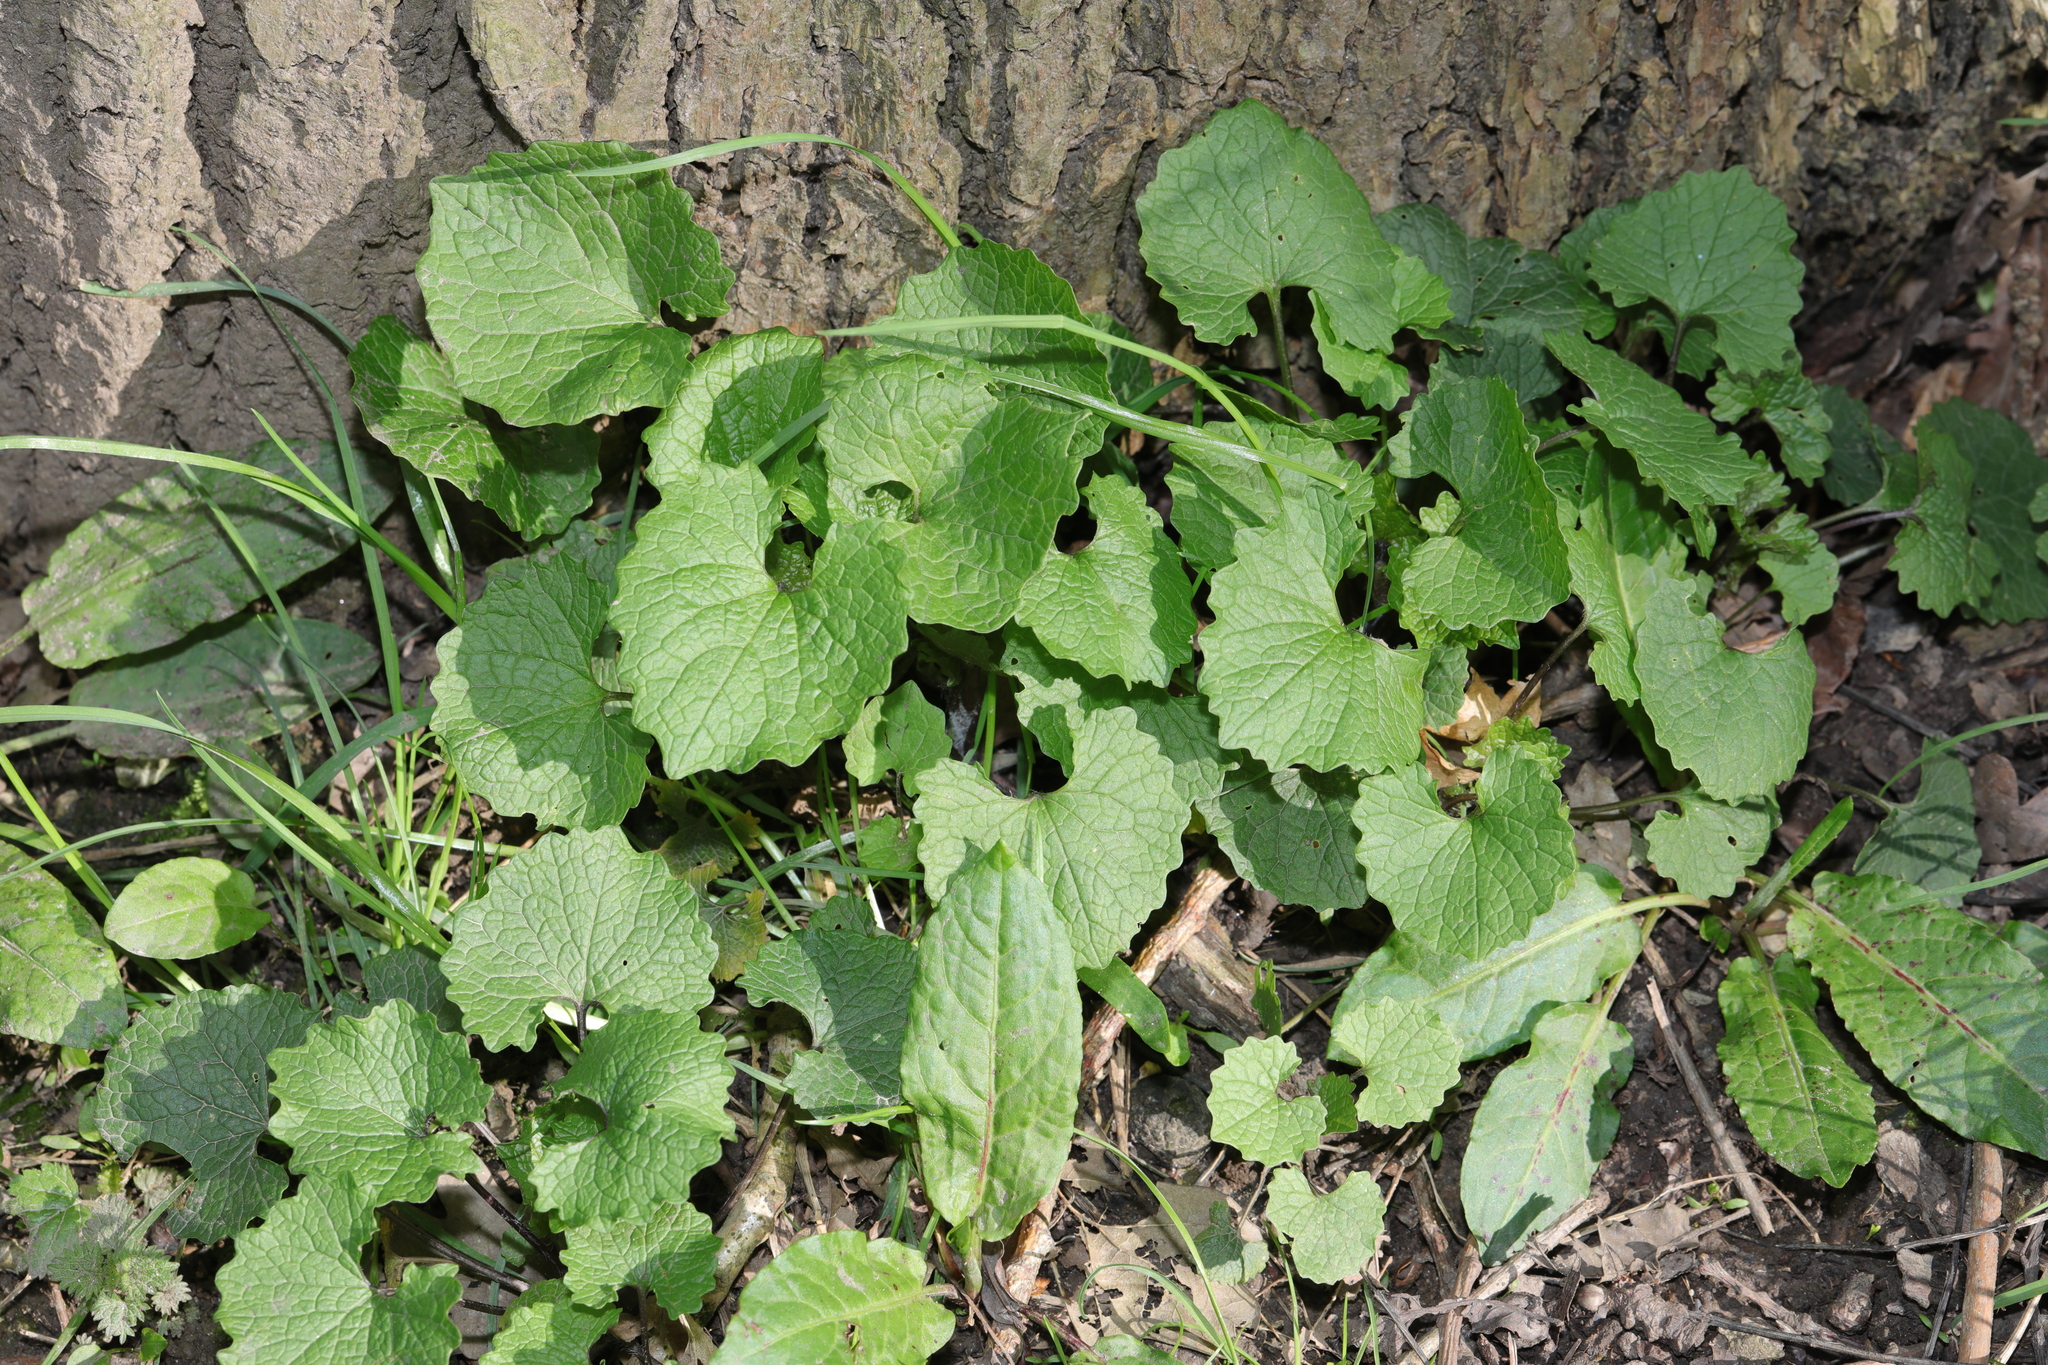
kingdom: Plantae
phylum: Tracheophyta
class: Magnoliopsida
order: Brassicales
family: Brassicaceae
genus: Alliaria
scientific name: Alliaria petiolata
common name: Garlic mustard
